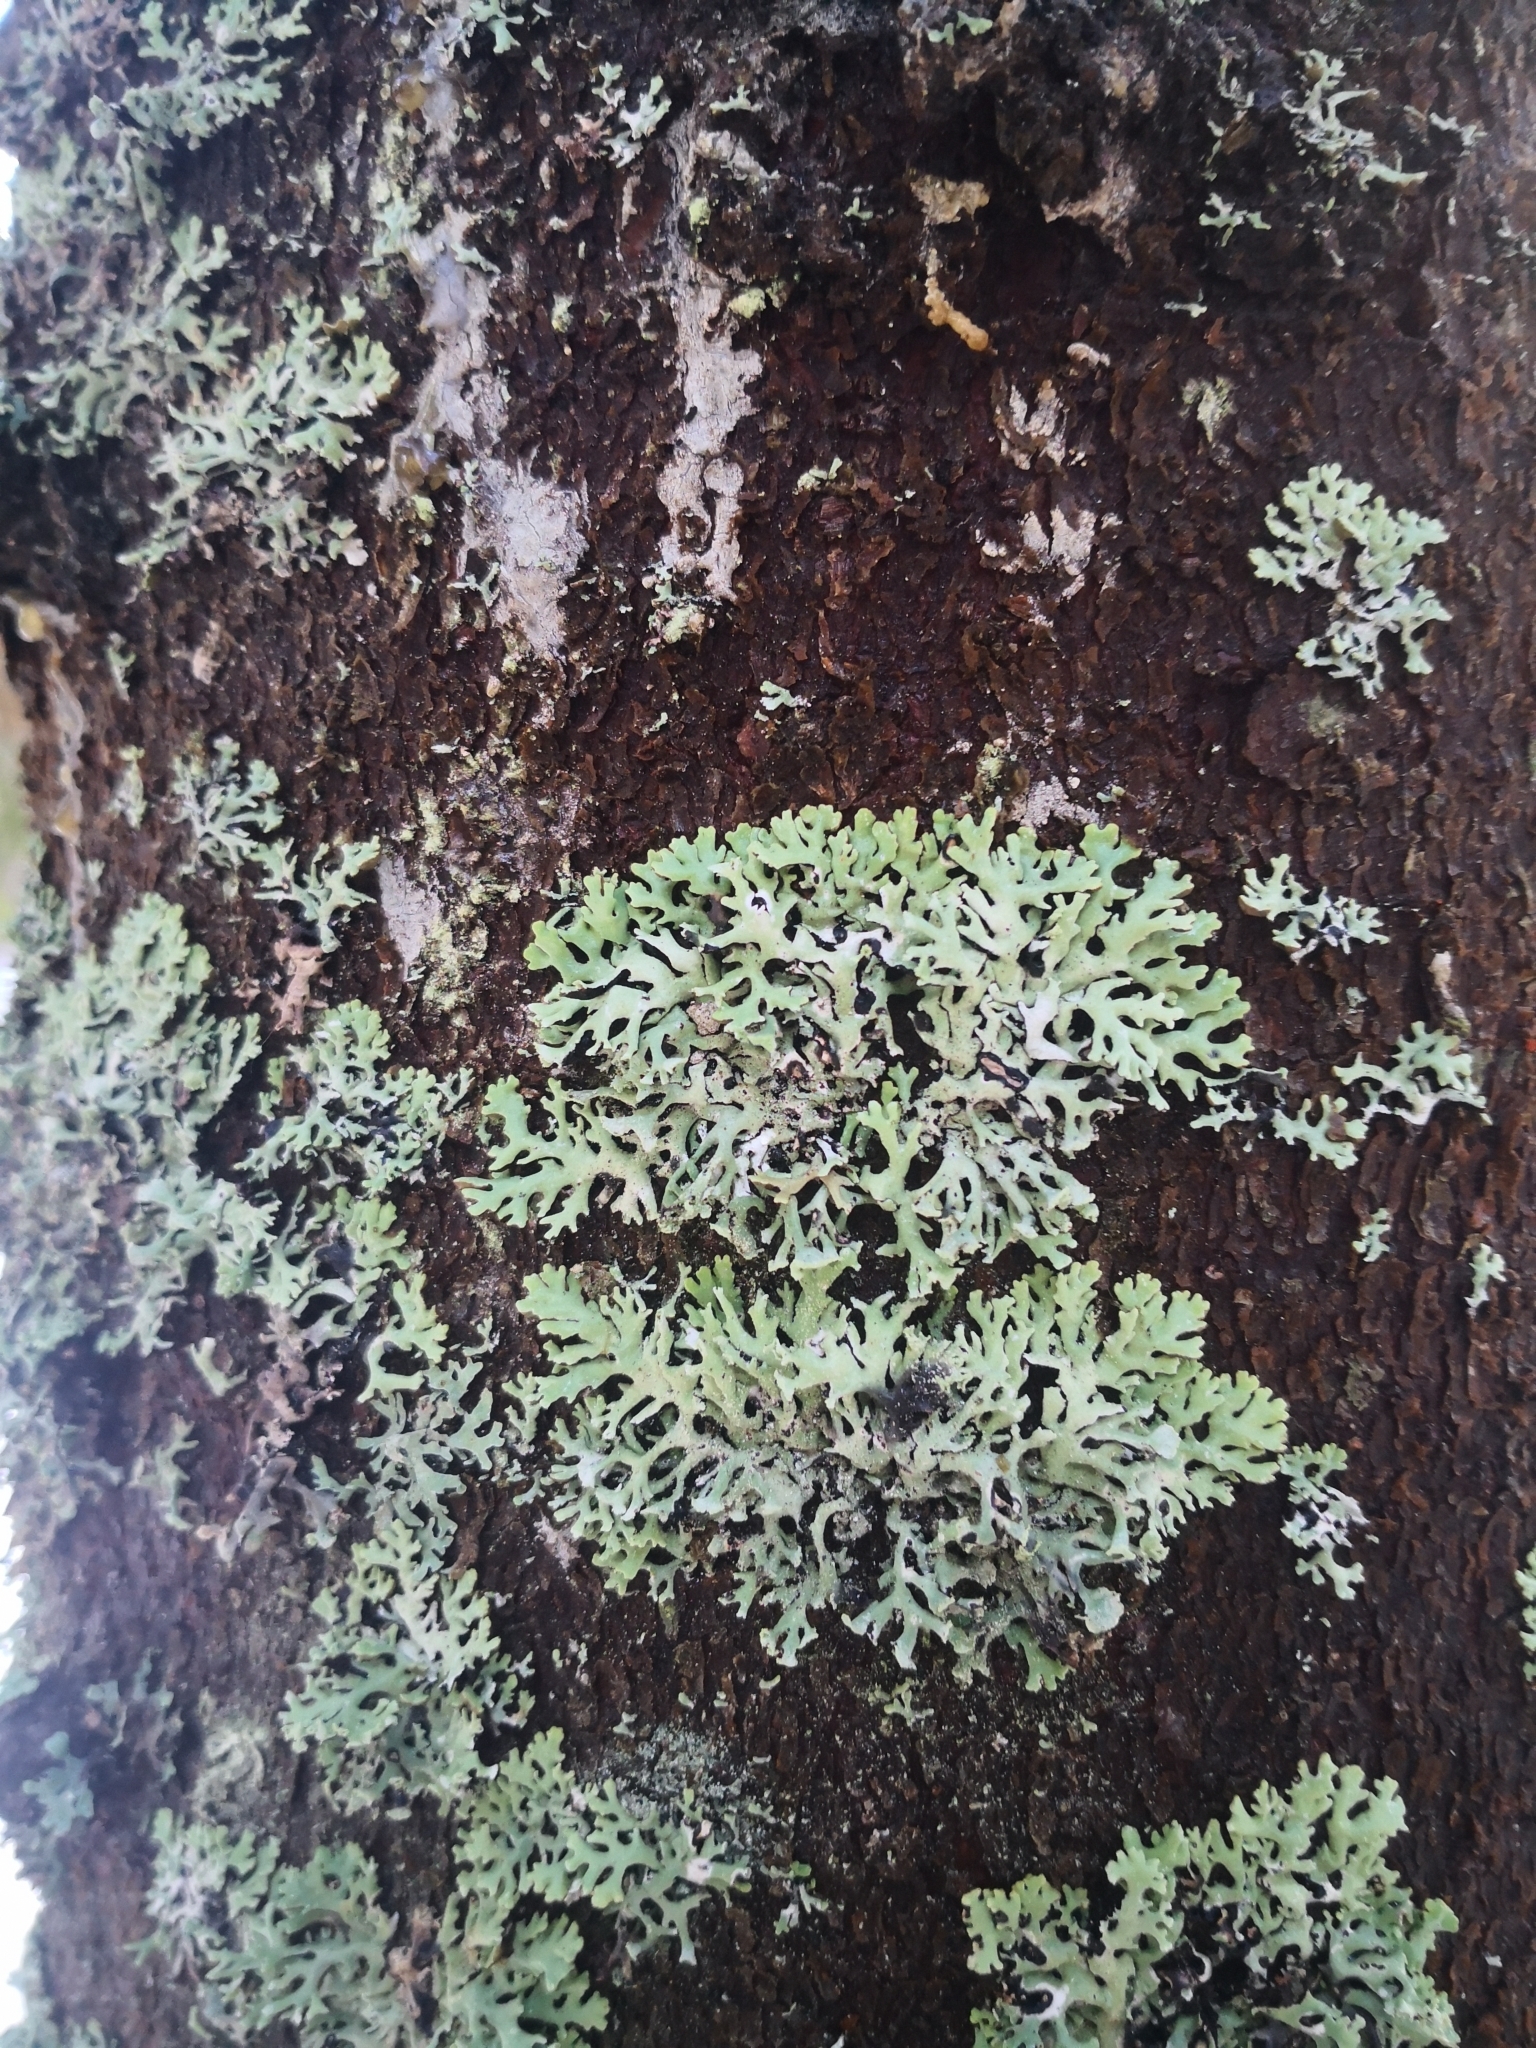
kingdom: Fungi
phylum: Ascomycota
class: Lecanoromycetes
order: Lecanorales
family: Parmeliaceae
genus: Hypogymnia
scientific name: Hypogymnia physodes
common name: Dark crottle
